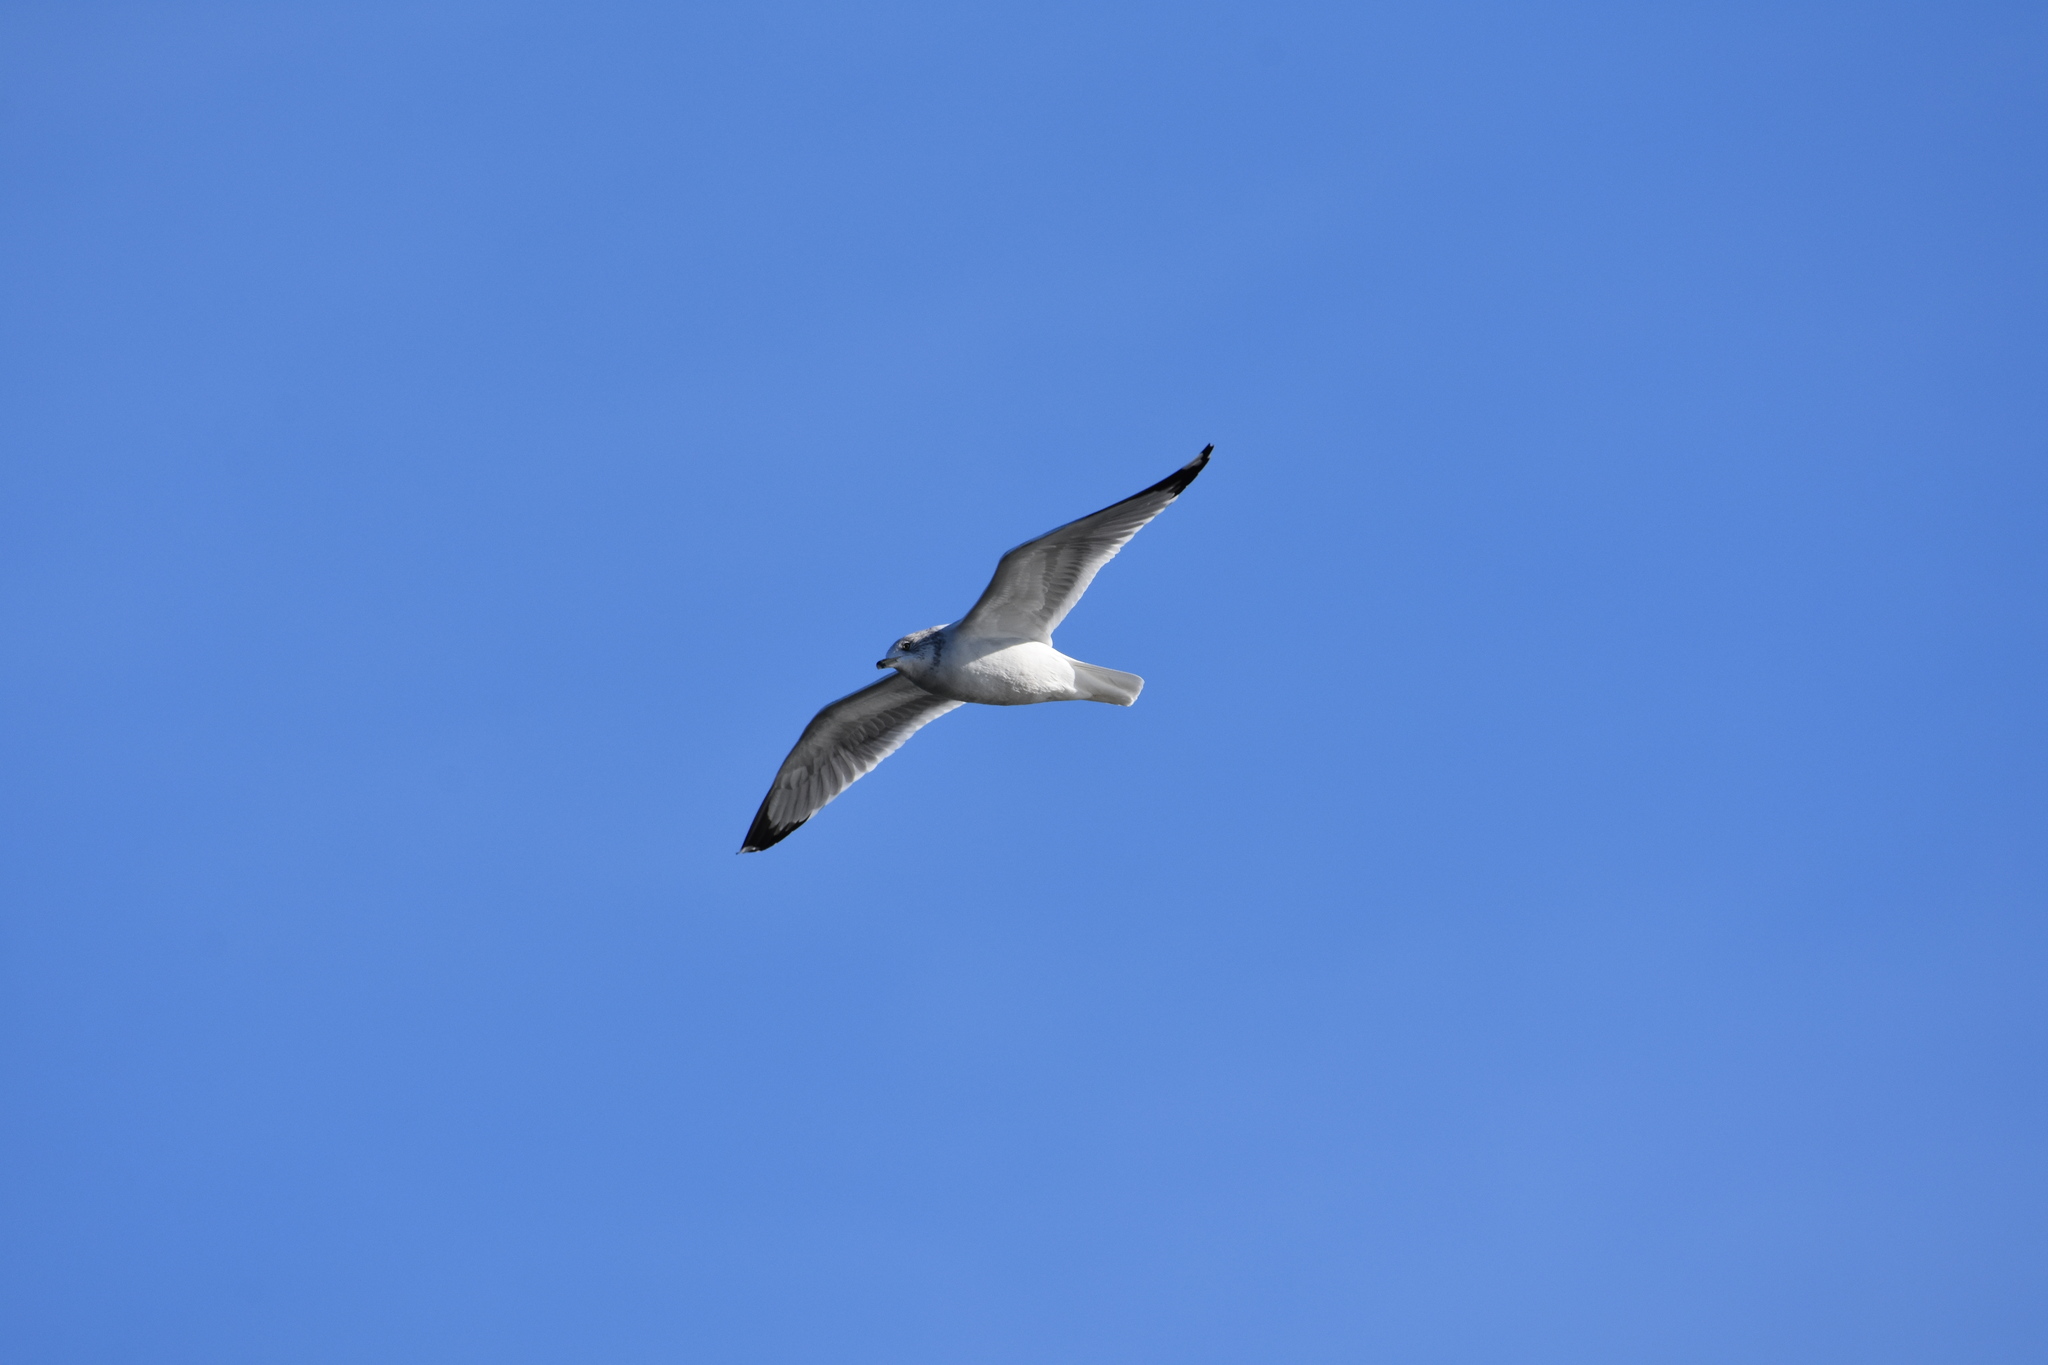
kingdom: Animalia
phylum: Chordata
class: Aves
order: Charadriiformes
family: Laridae
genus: Larus
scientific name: Larus delawarensis
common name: Ring-billed gull
